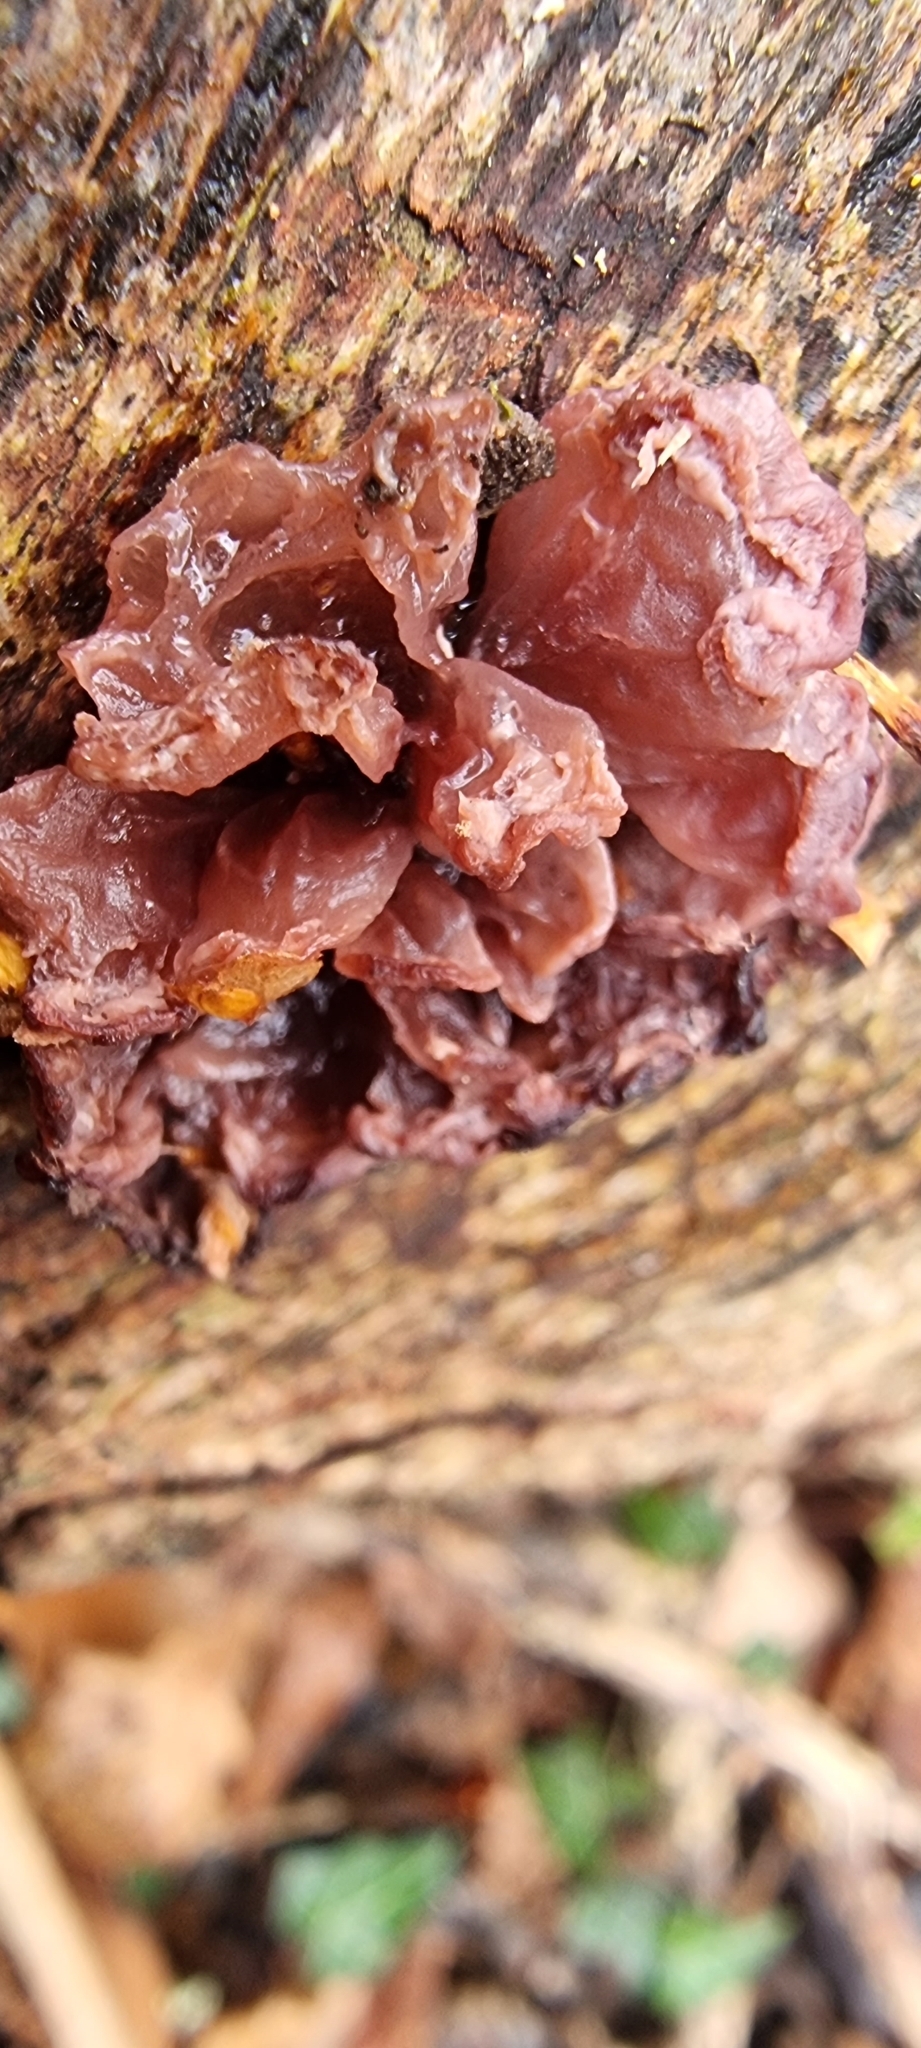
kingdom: Fungi
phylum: Basidiomycota
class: Tremellomycetes
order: Tremellales
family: Tremellaceae
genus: Phaeotremella
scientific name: Phaeotremella frondosa
